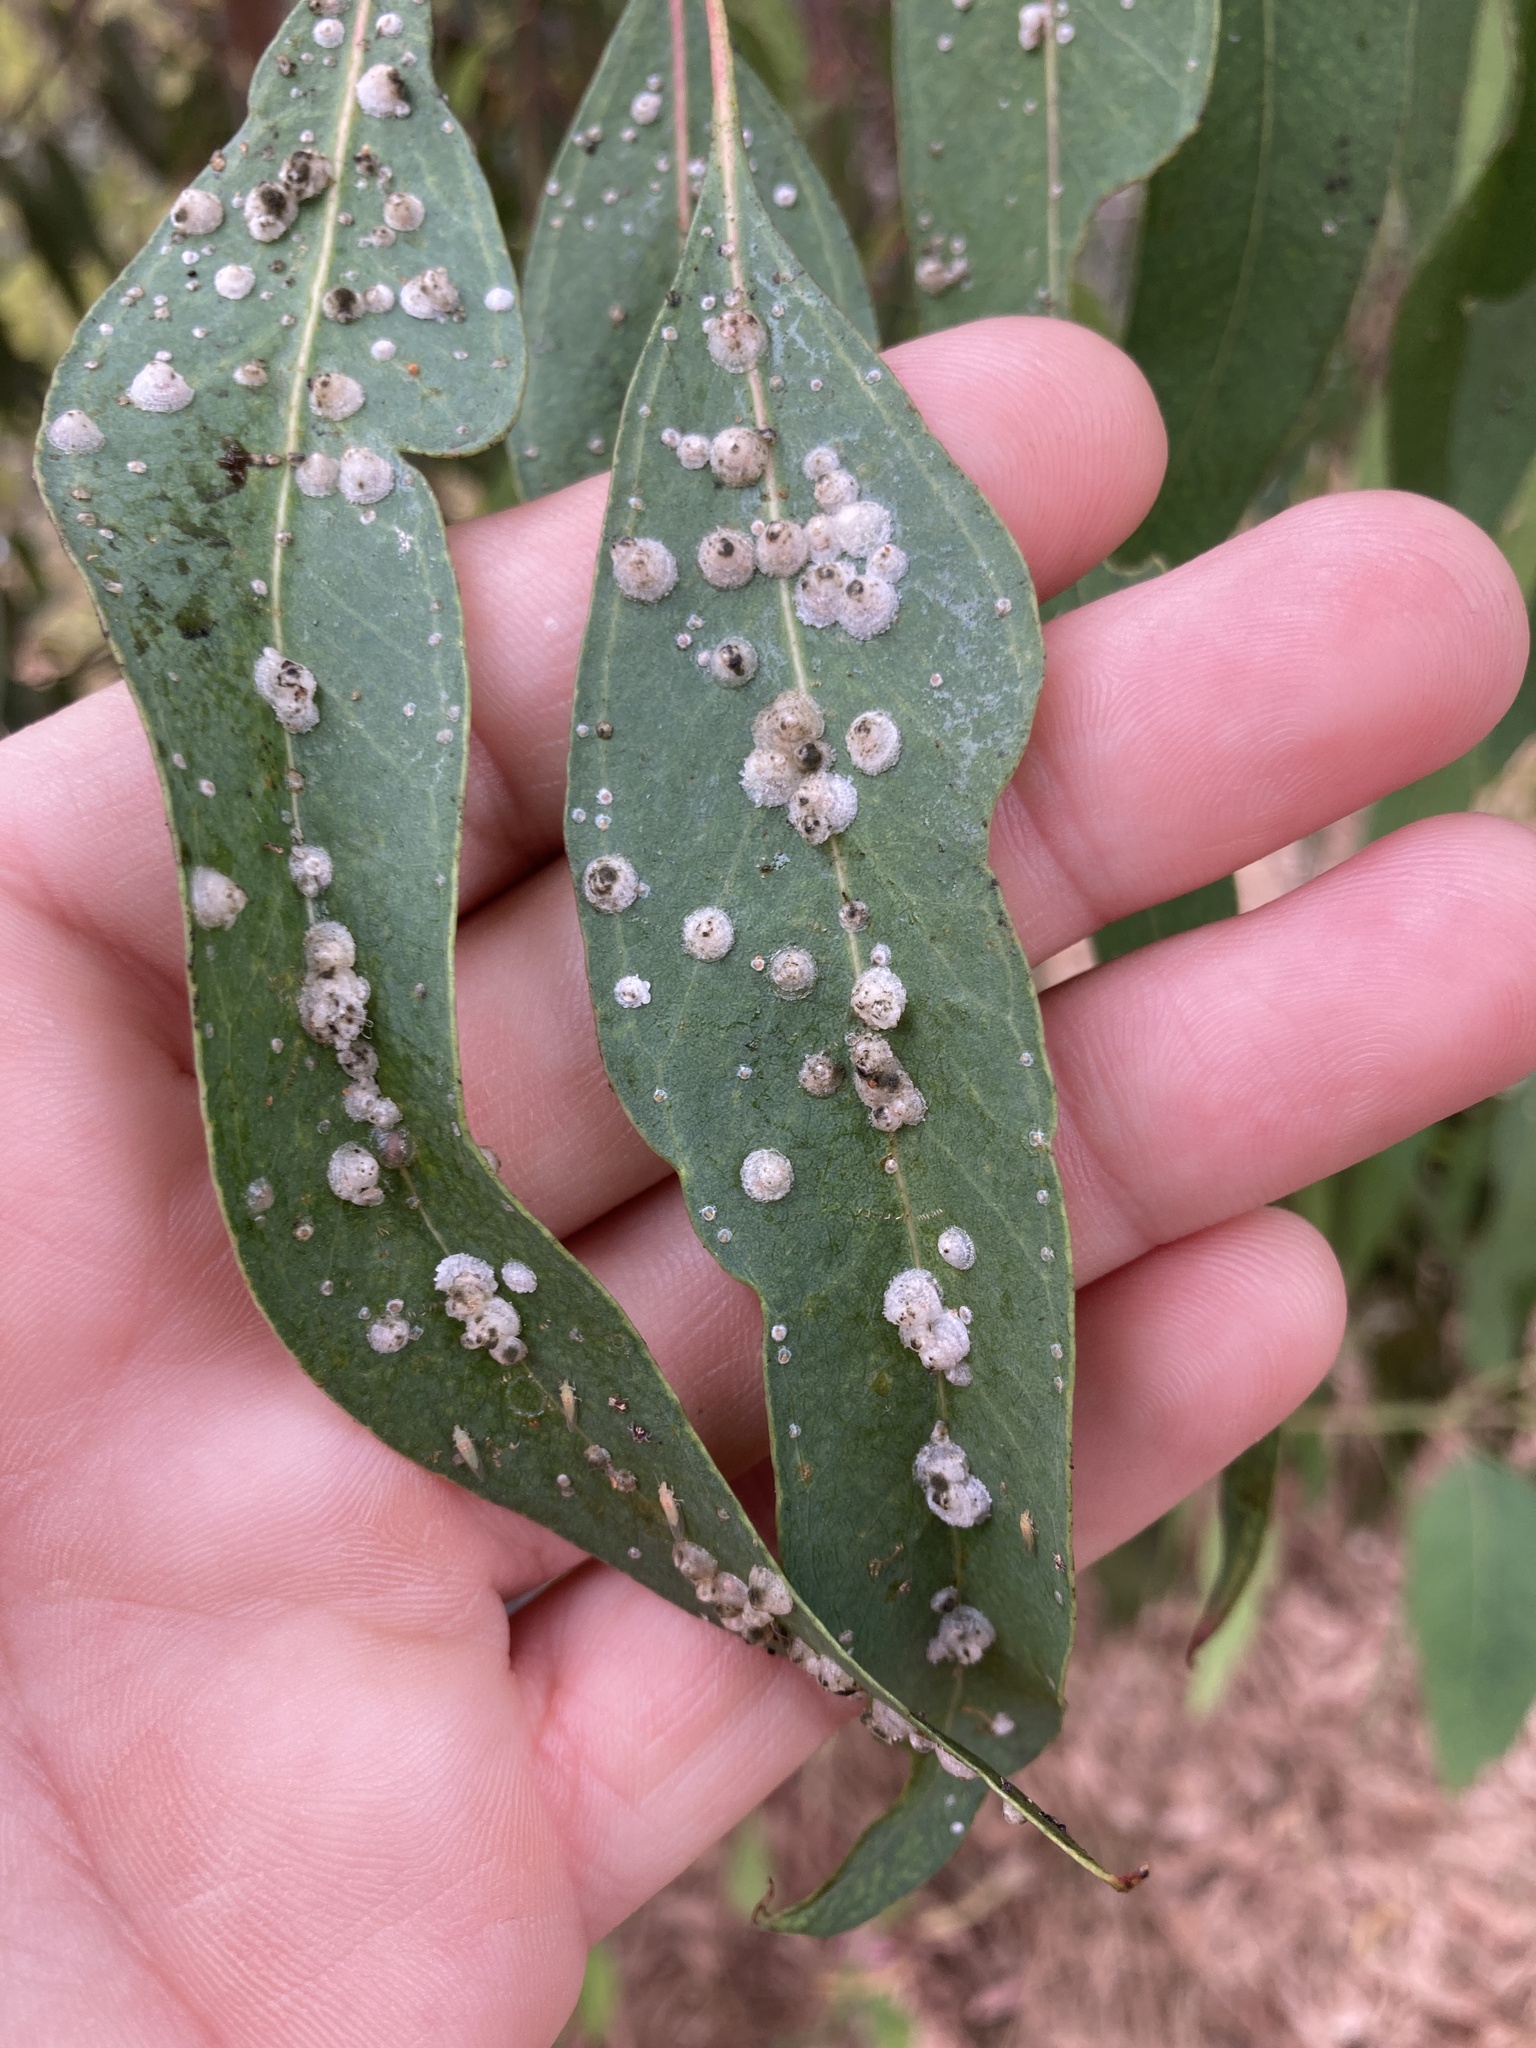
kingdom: Animalia
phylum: Arthropoda
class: Insecta
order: Hemiptera
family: Aphalaridae
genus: Glycaspis
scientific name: Glycaspis brimblecombei
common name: Red gum lerp psyllid
